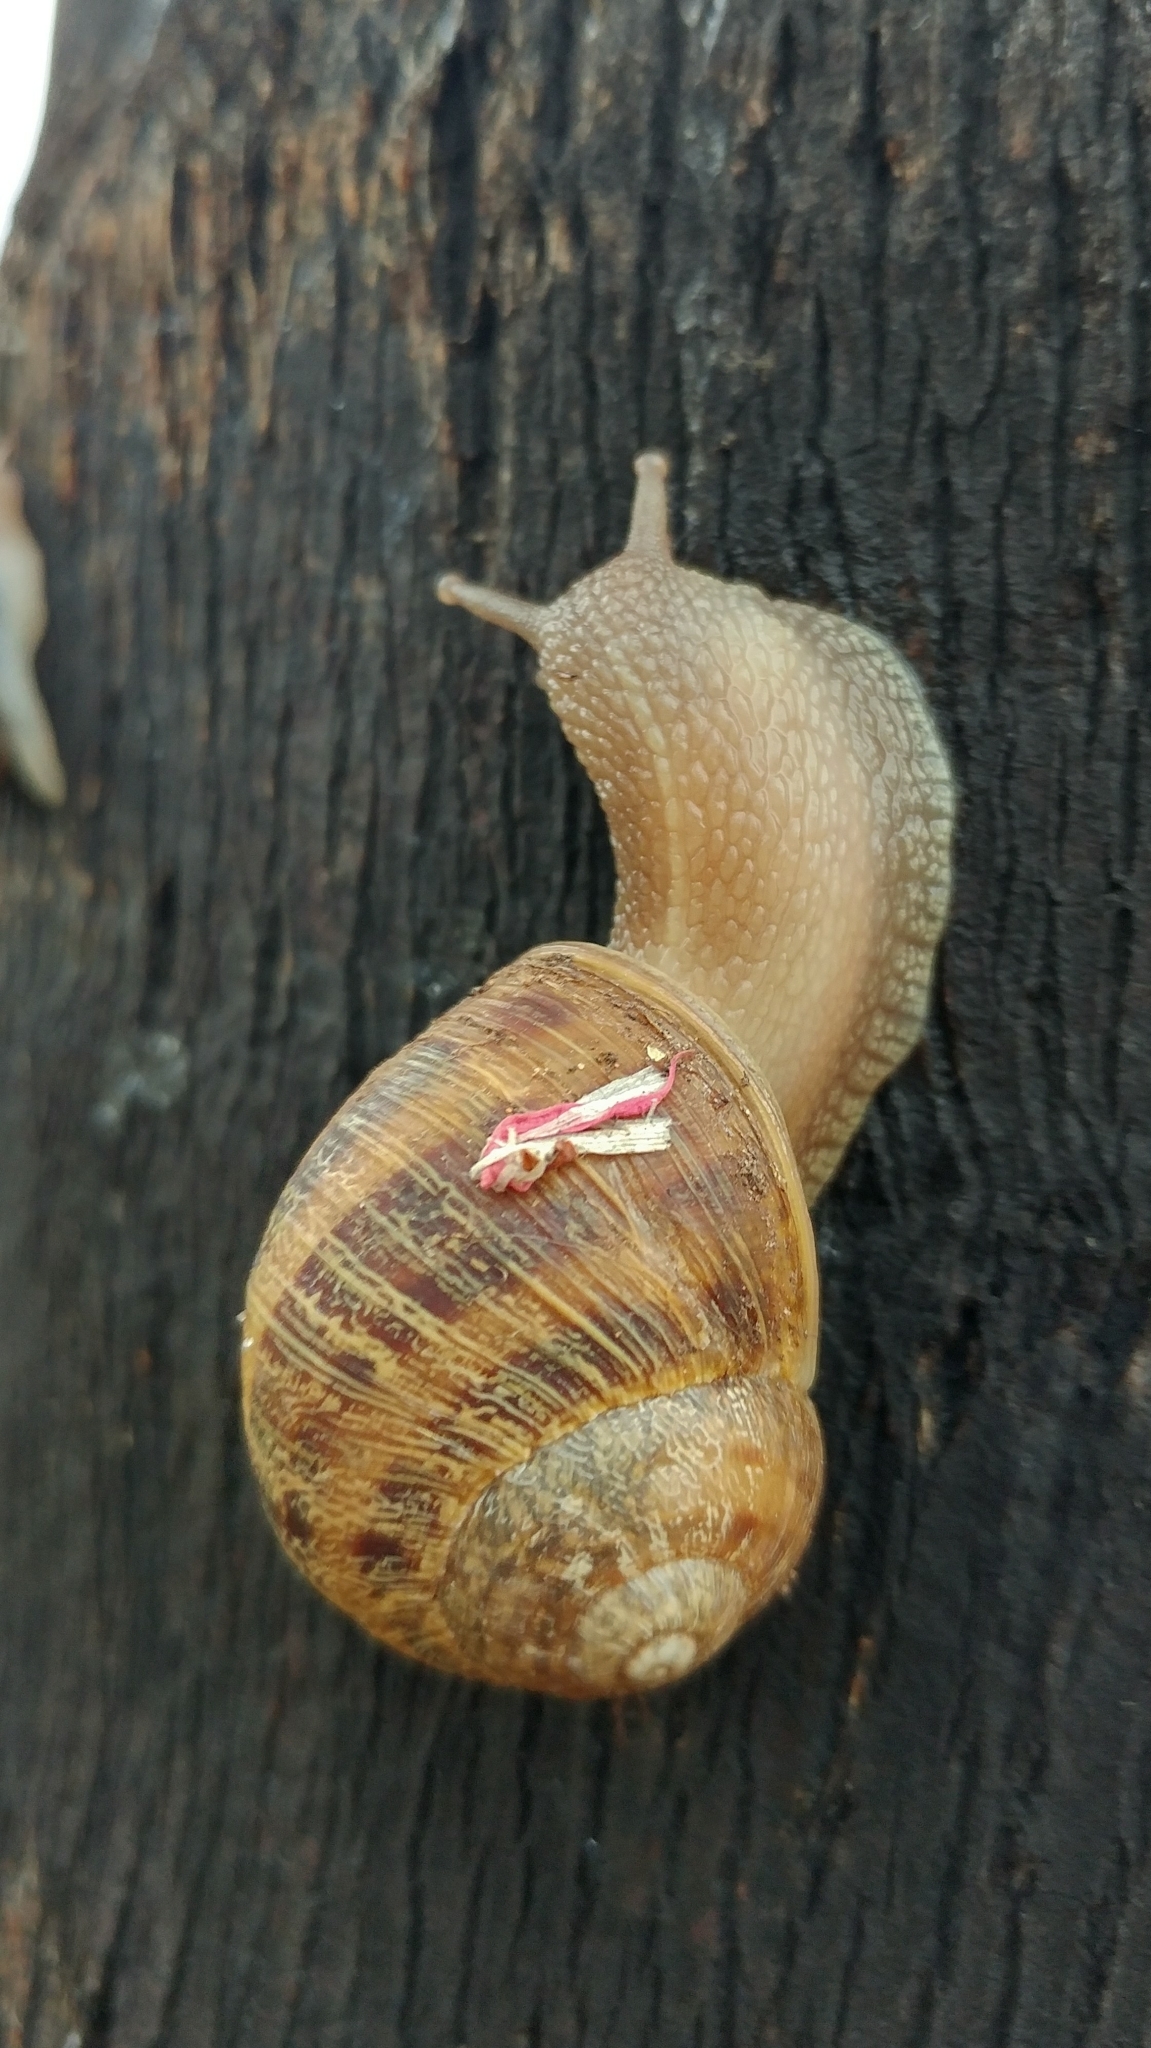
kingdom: Animalia
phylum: Mollusca
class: Gastropoda
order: Stylommatophora
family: Helicidae
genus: Cornu
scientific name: Cornu aspersum
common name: Brown garden snail
